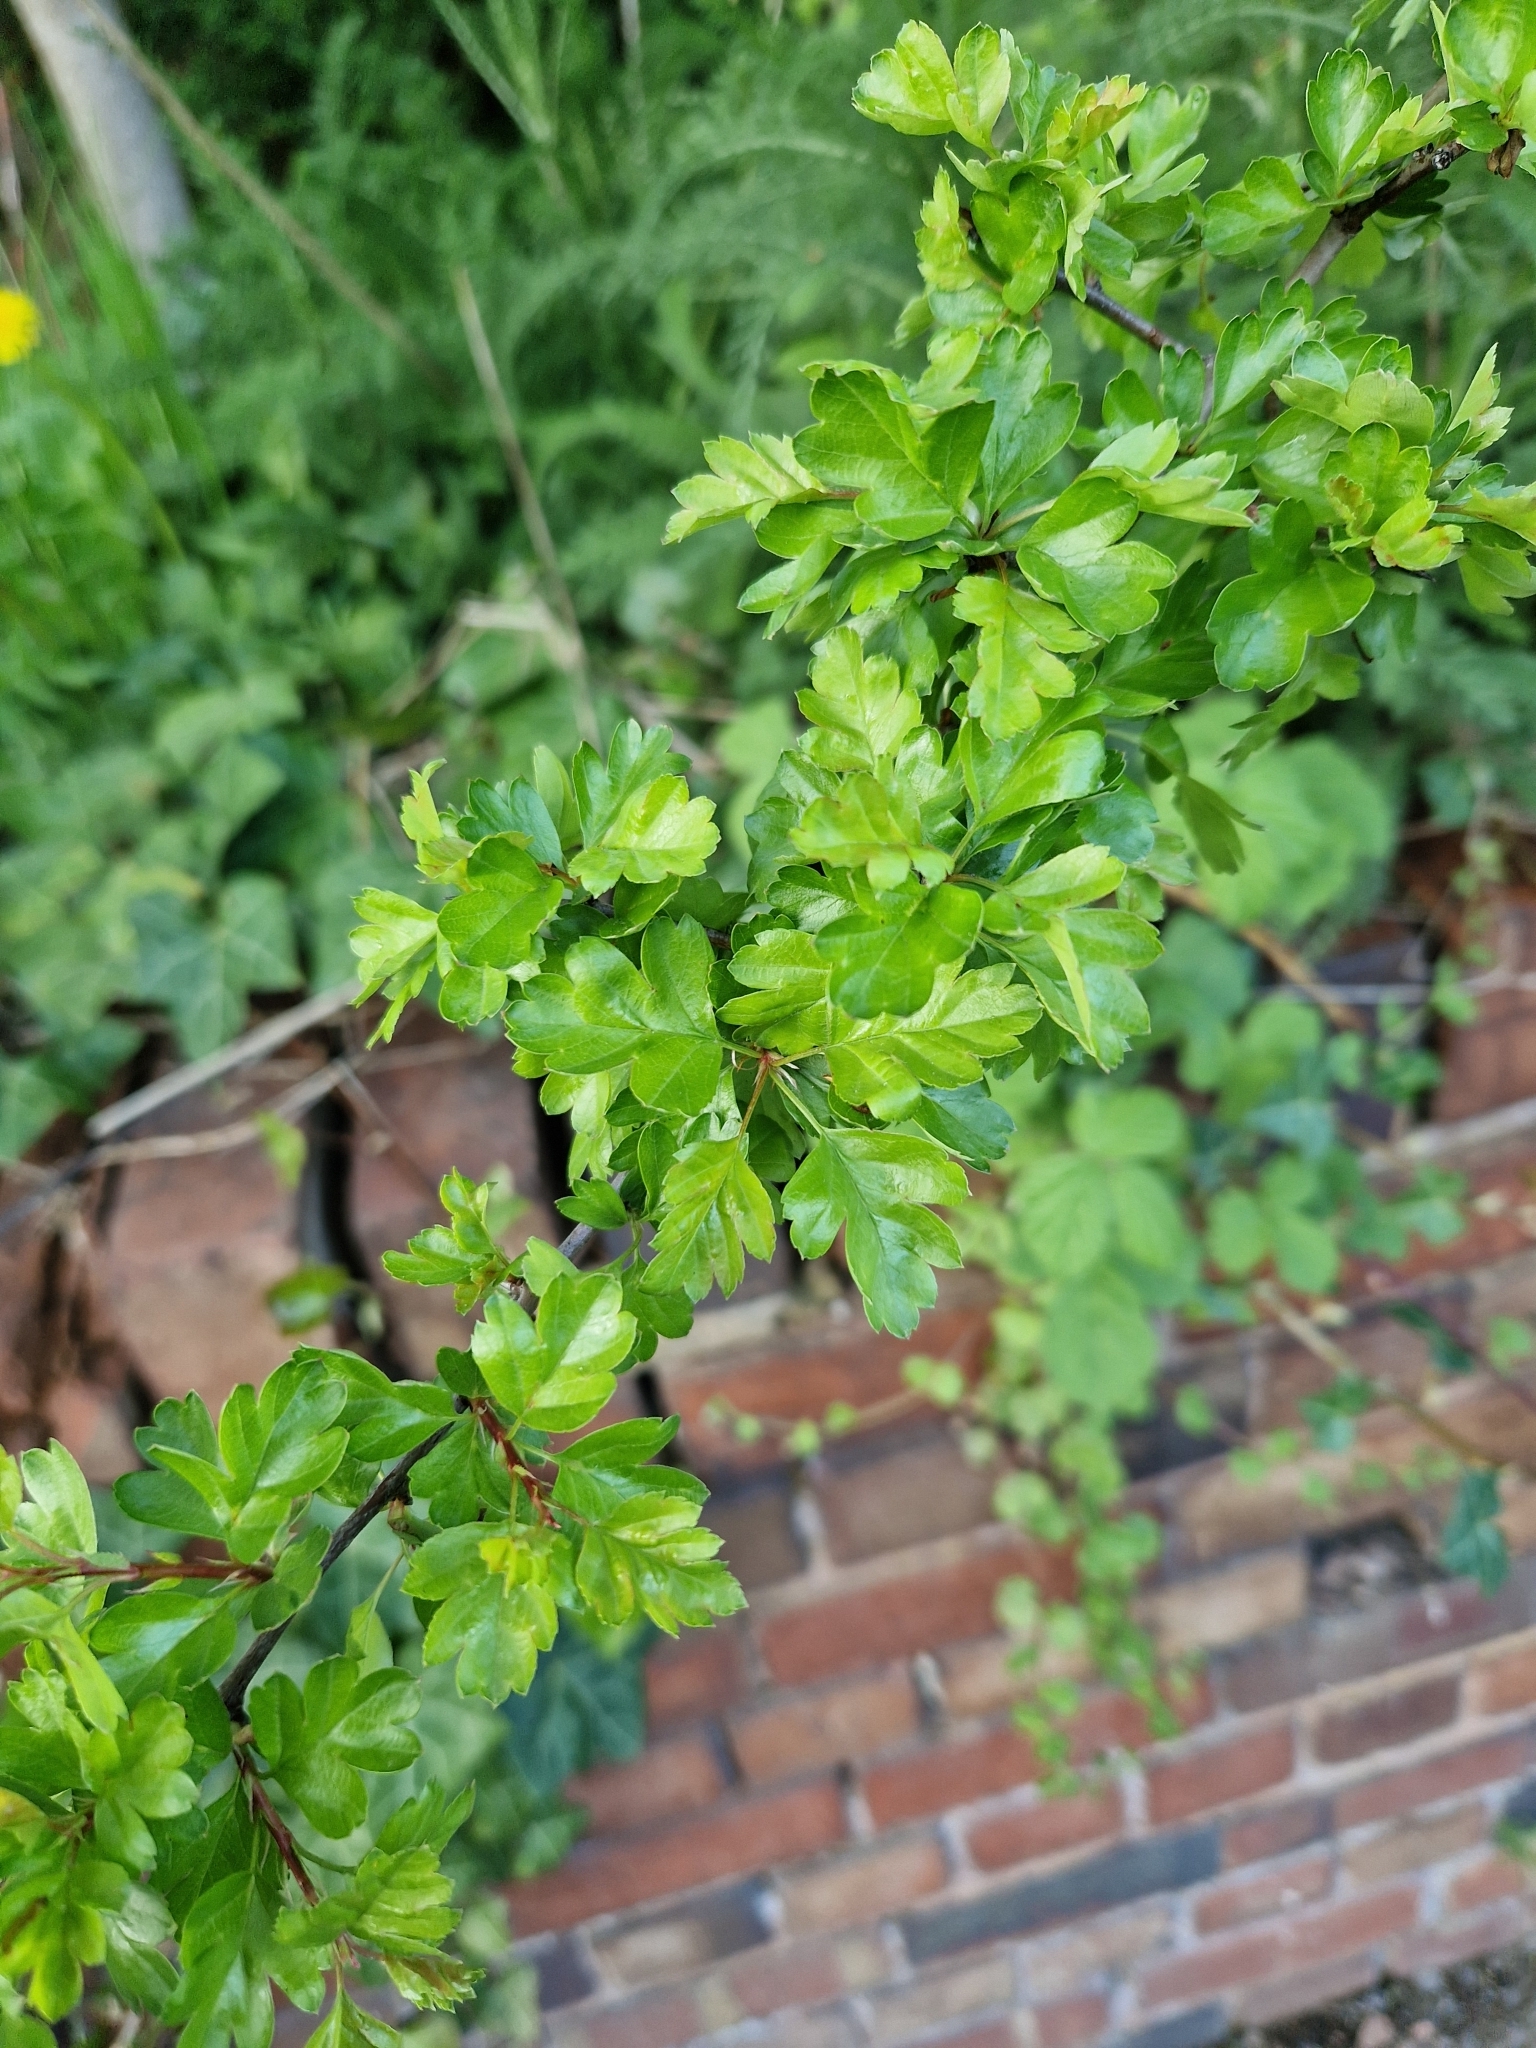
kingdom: Plantae
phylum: Tracheophyta
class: Magnoliopsida
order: Rosales
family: Rosaceae
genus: Crataegus
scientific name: Crataegus monogyna
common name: Hawthorn
